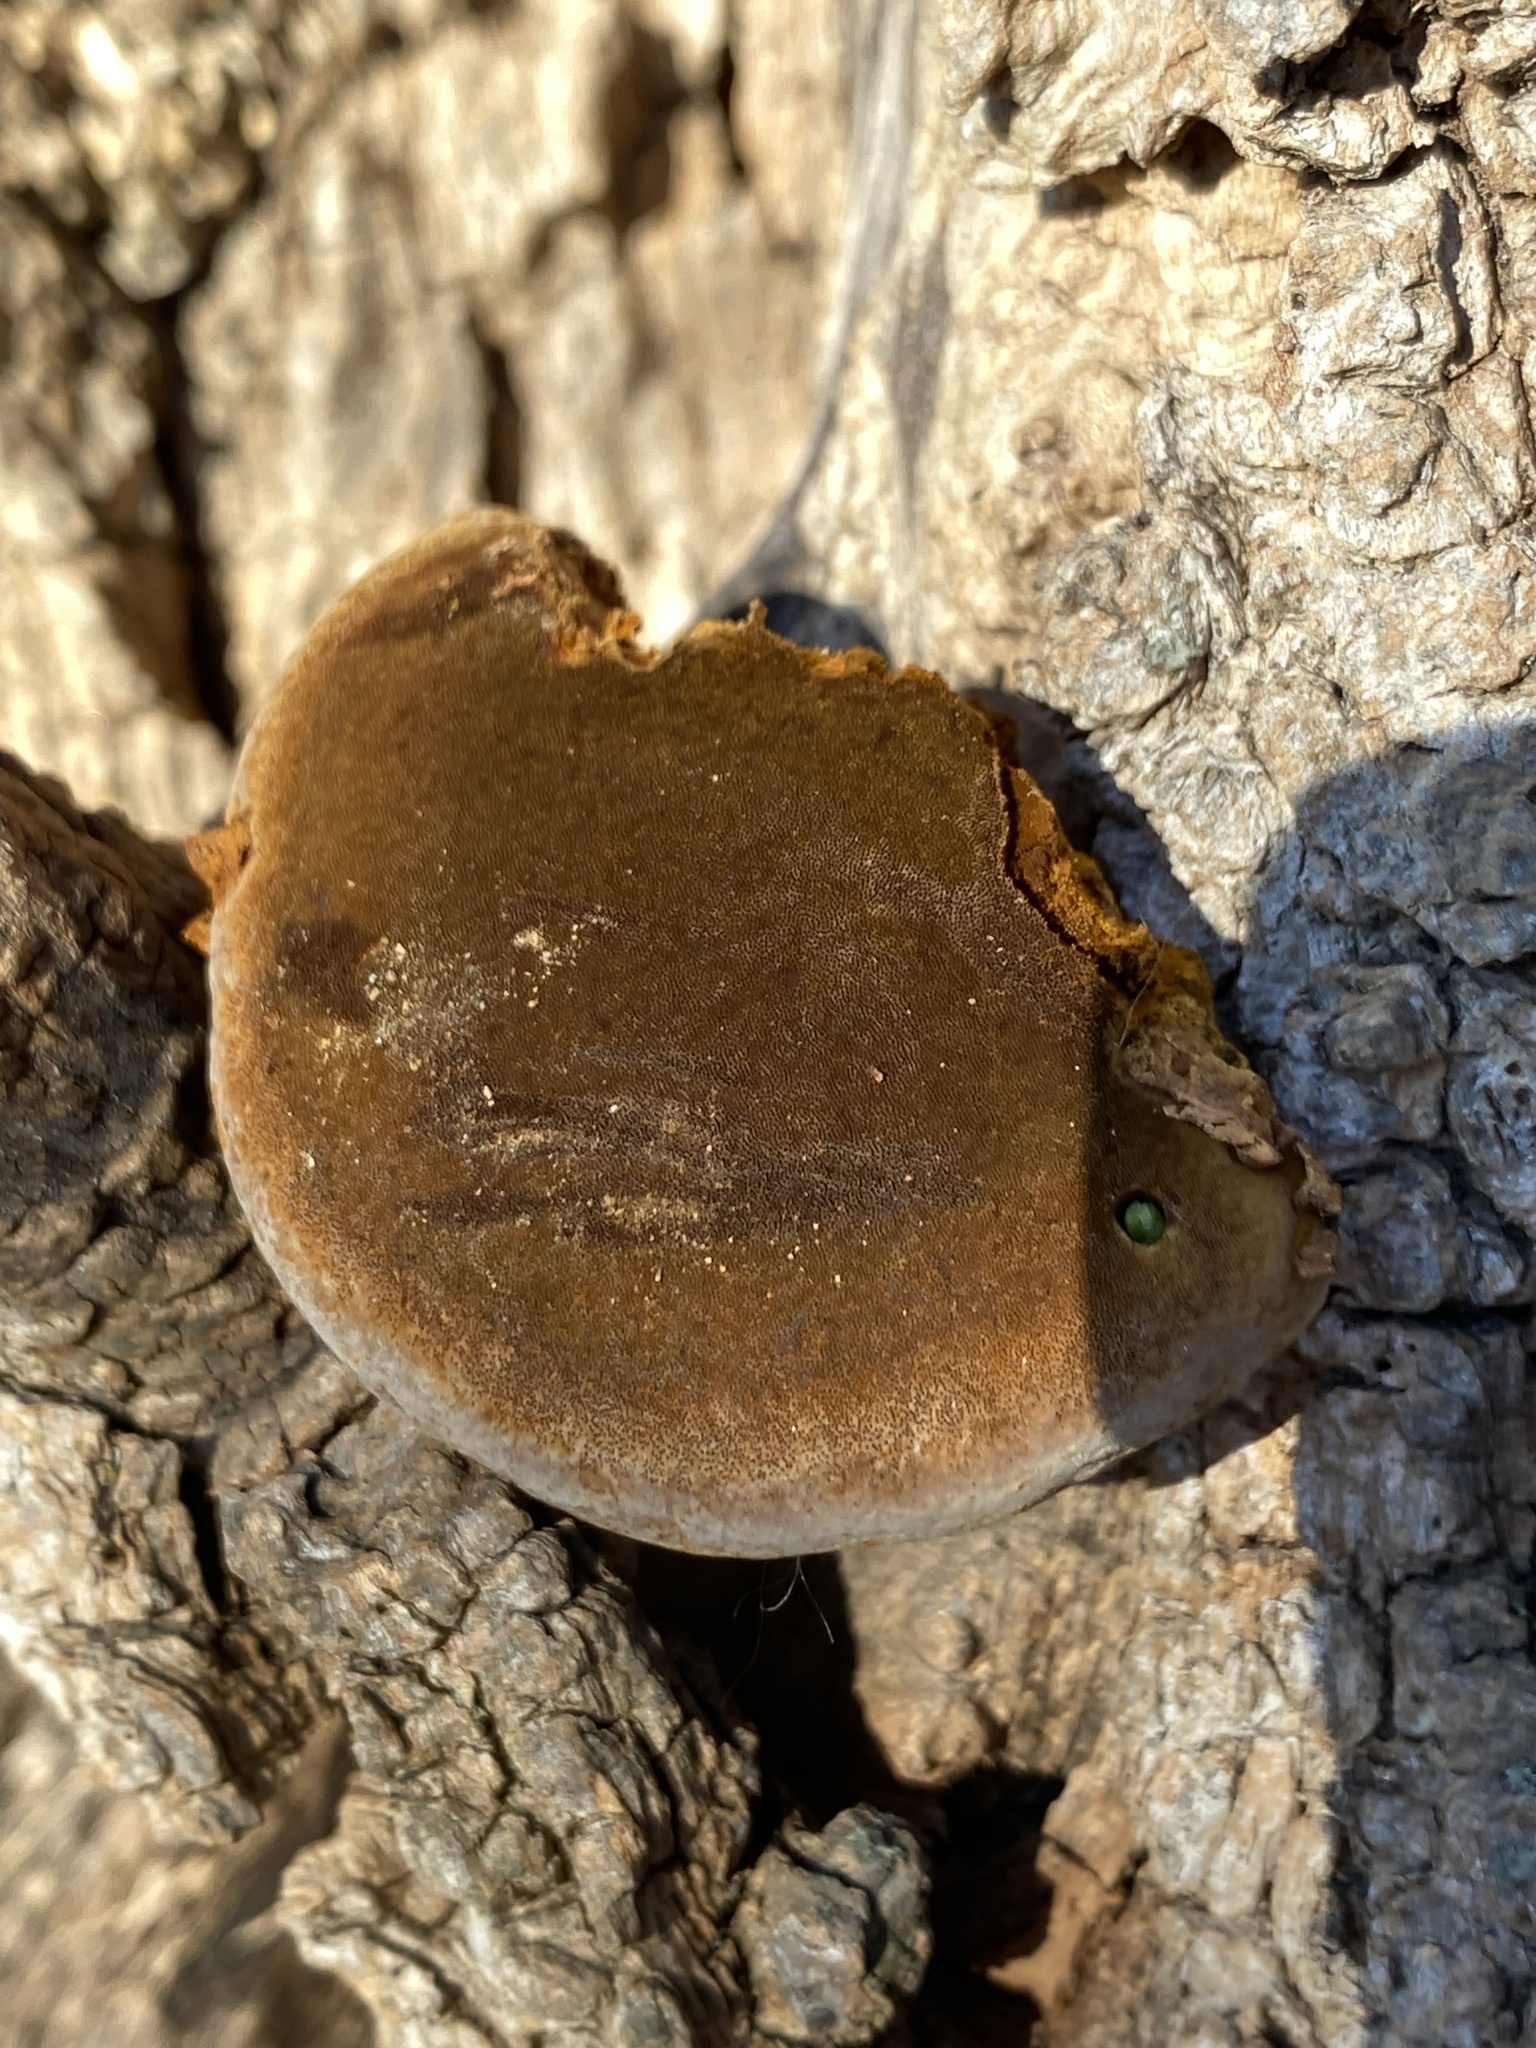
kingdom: Fungi
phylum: Basidiomycota
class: Agaricomycetes
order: Hymenochaetales
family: Hymenochaetaceae
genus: Phellinus
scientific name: Phellinus robiniae
